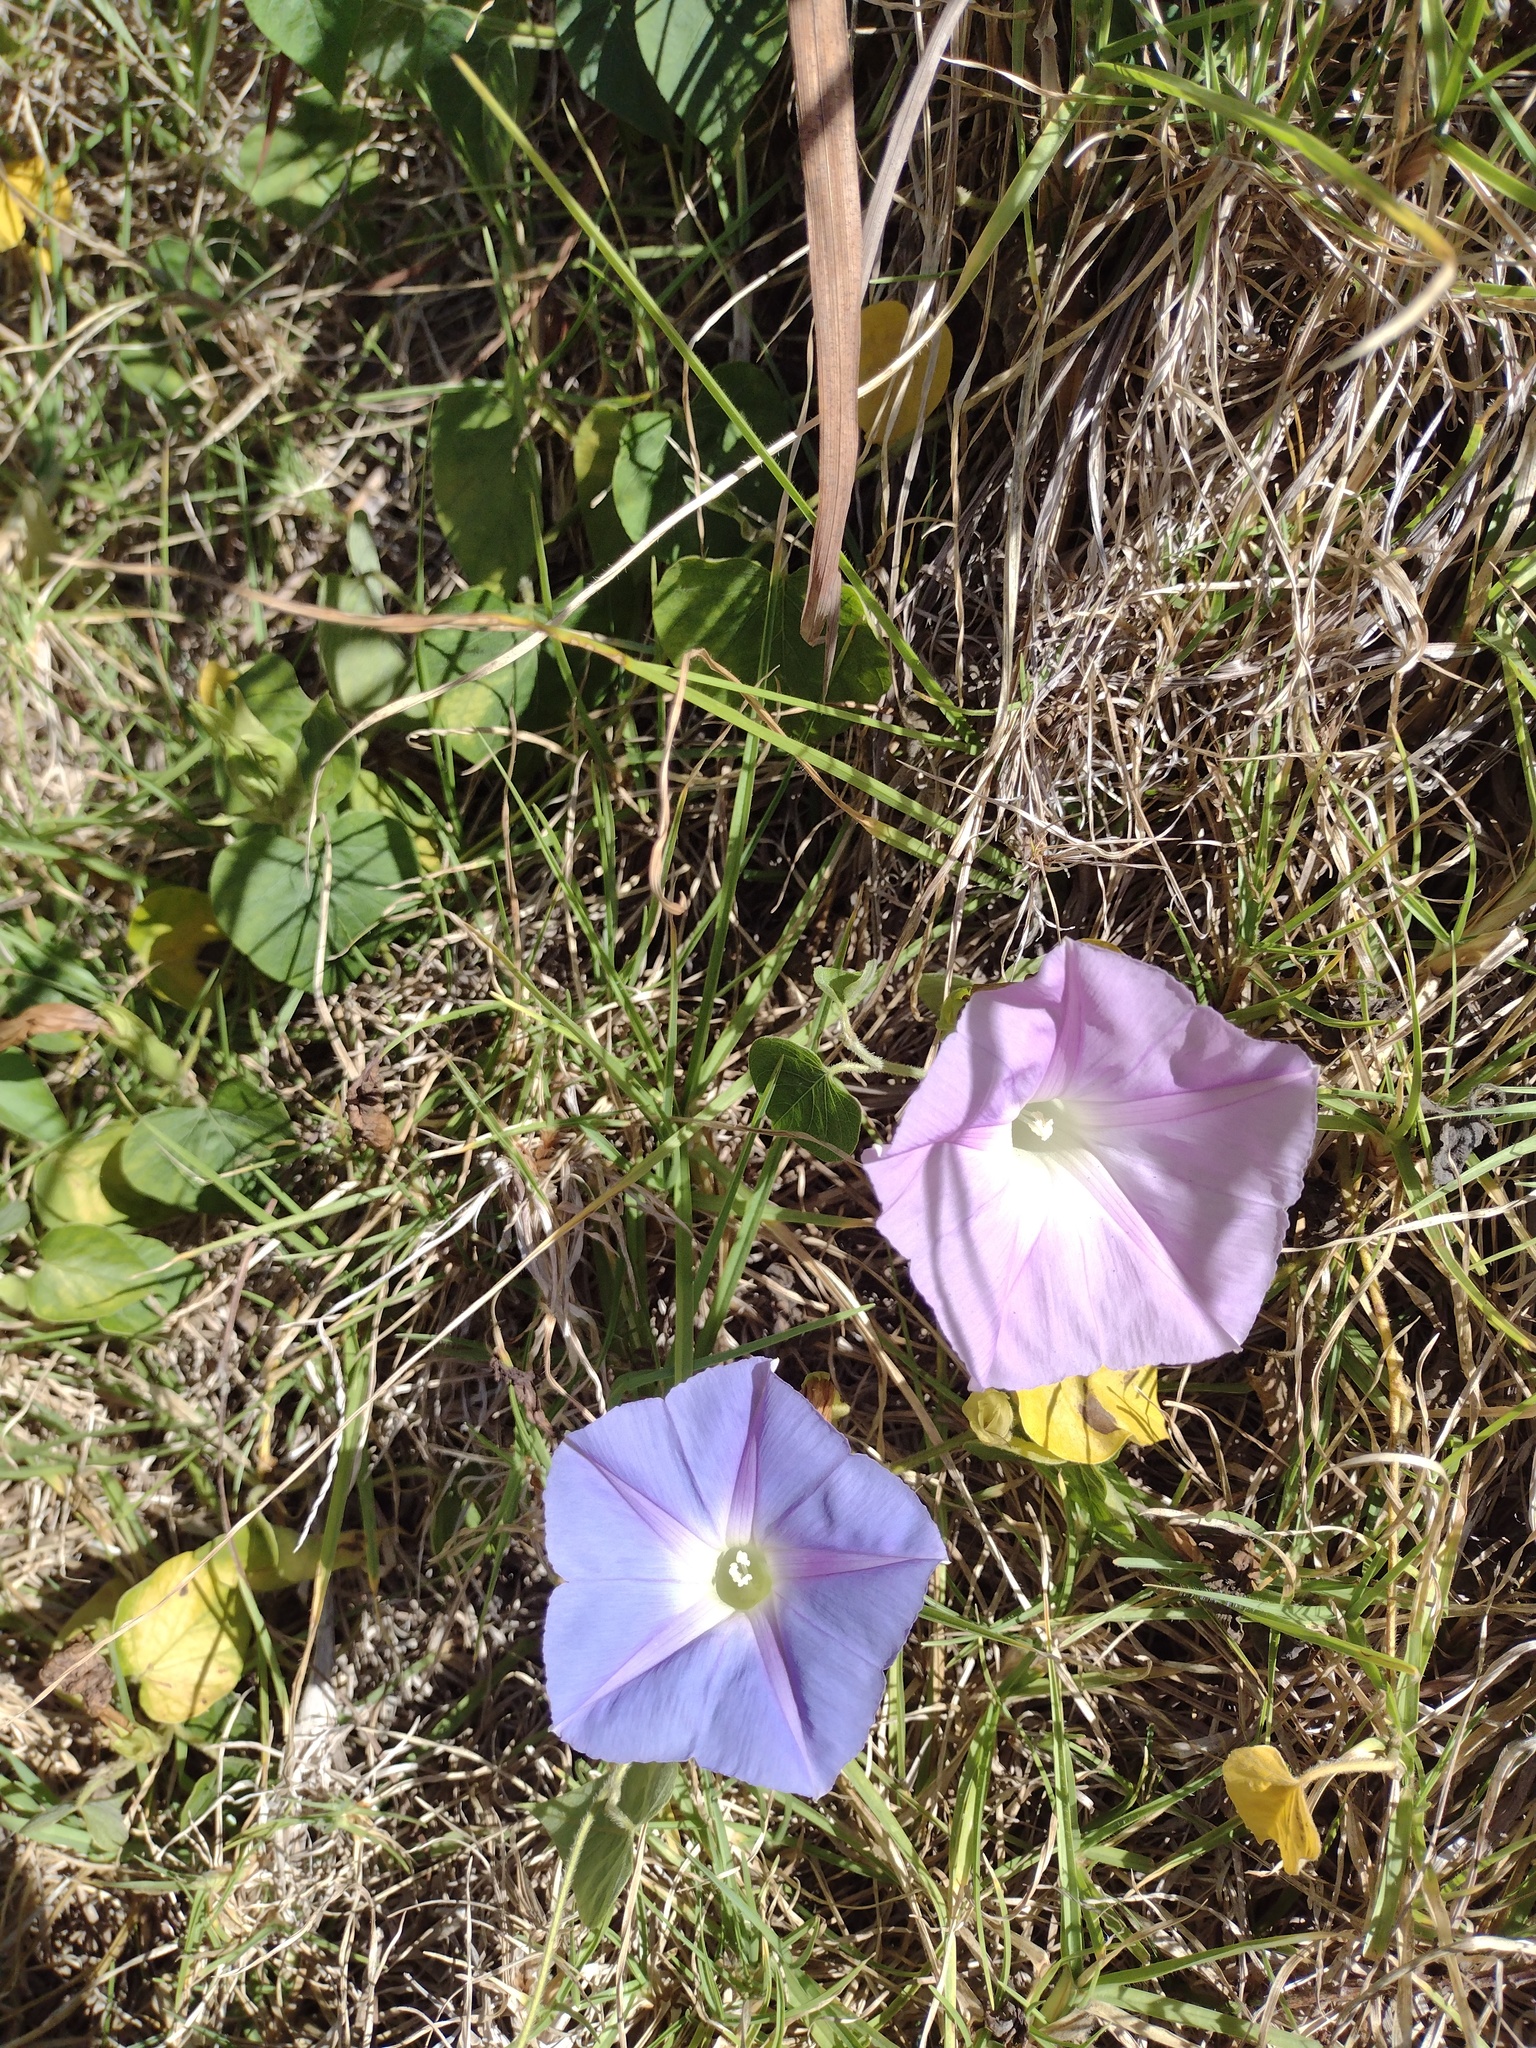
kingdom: Plantae
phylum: Tracheophyta
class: Magnoliopsida
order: Solanales
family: Convolvulaceae
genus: Ipomoea
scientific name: Ipomoea indica
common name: Blue dawnflower
